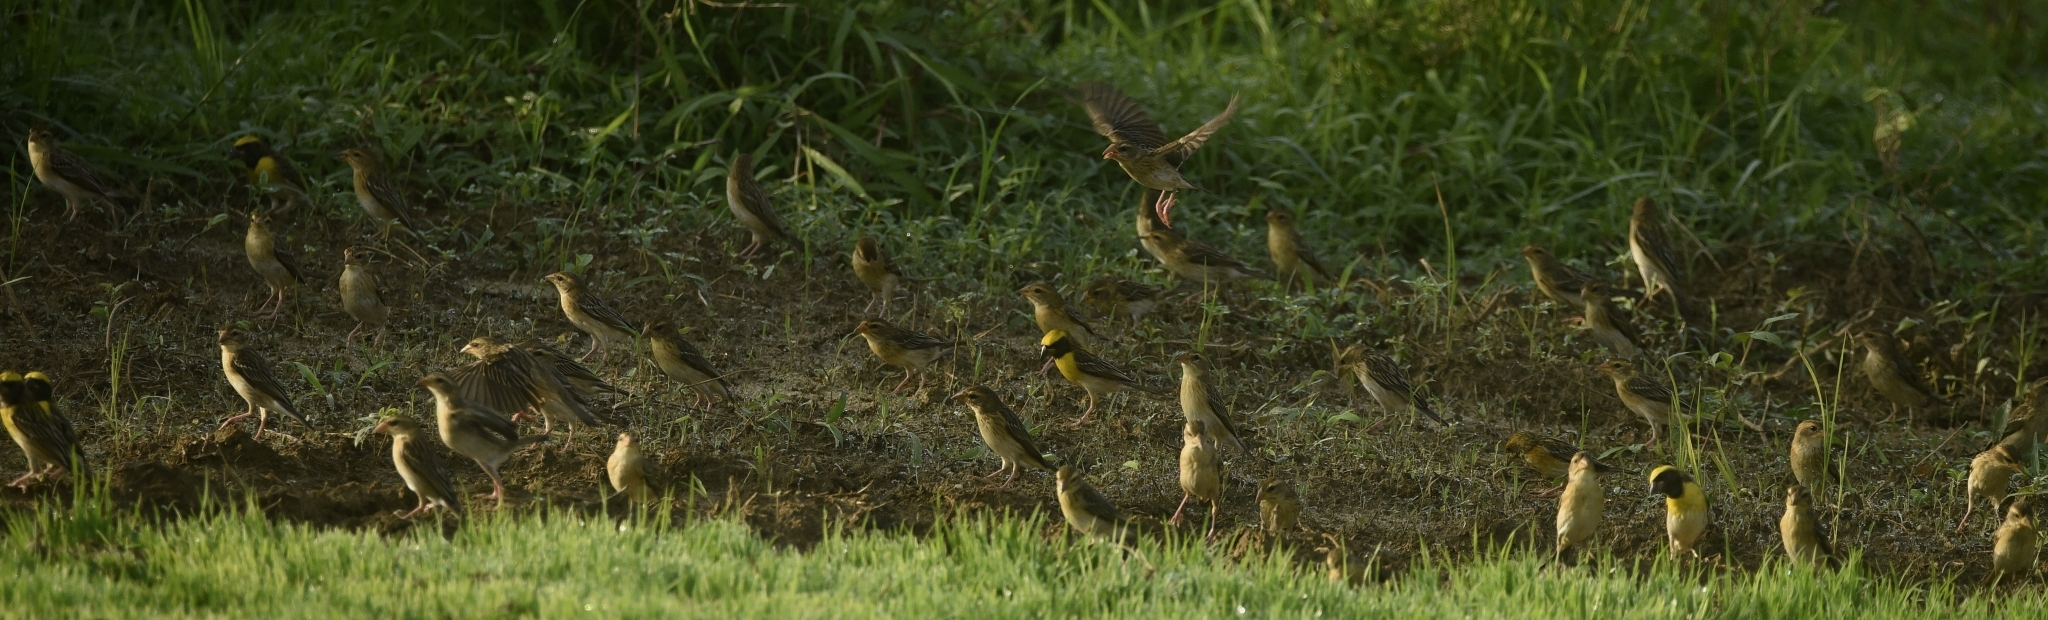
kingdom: Animalia
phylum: Chordata
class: Aves
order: Passeriformes
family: Ploceidae
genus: Ploceus
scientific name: Ploceus philippinus
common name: Baya weaver
